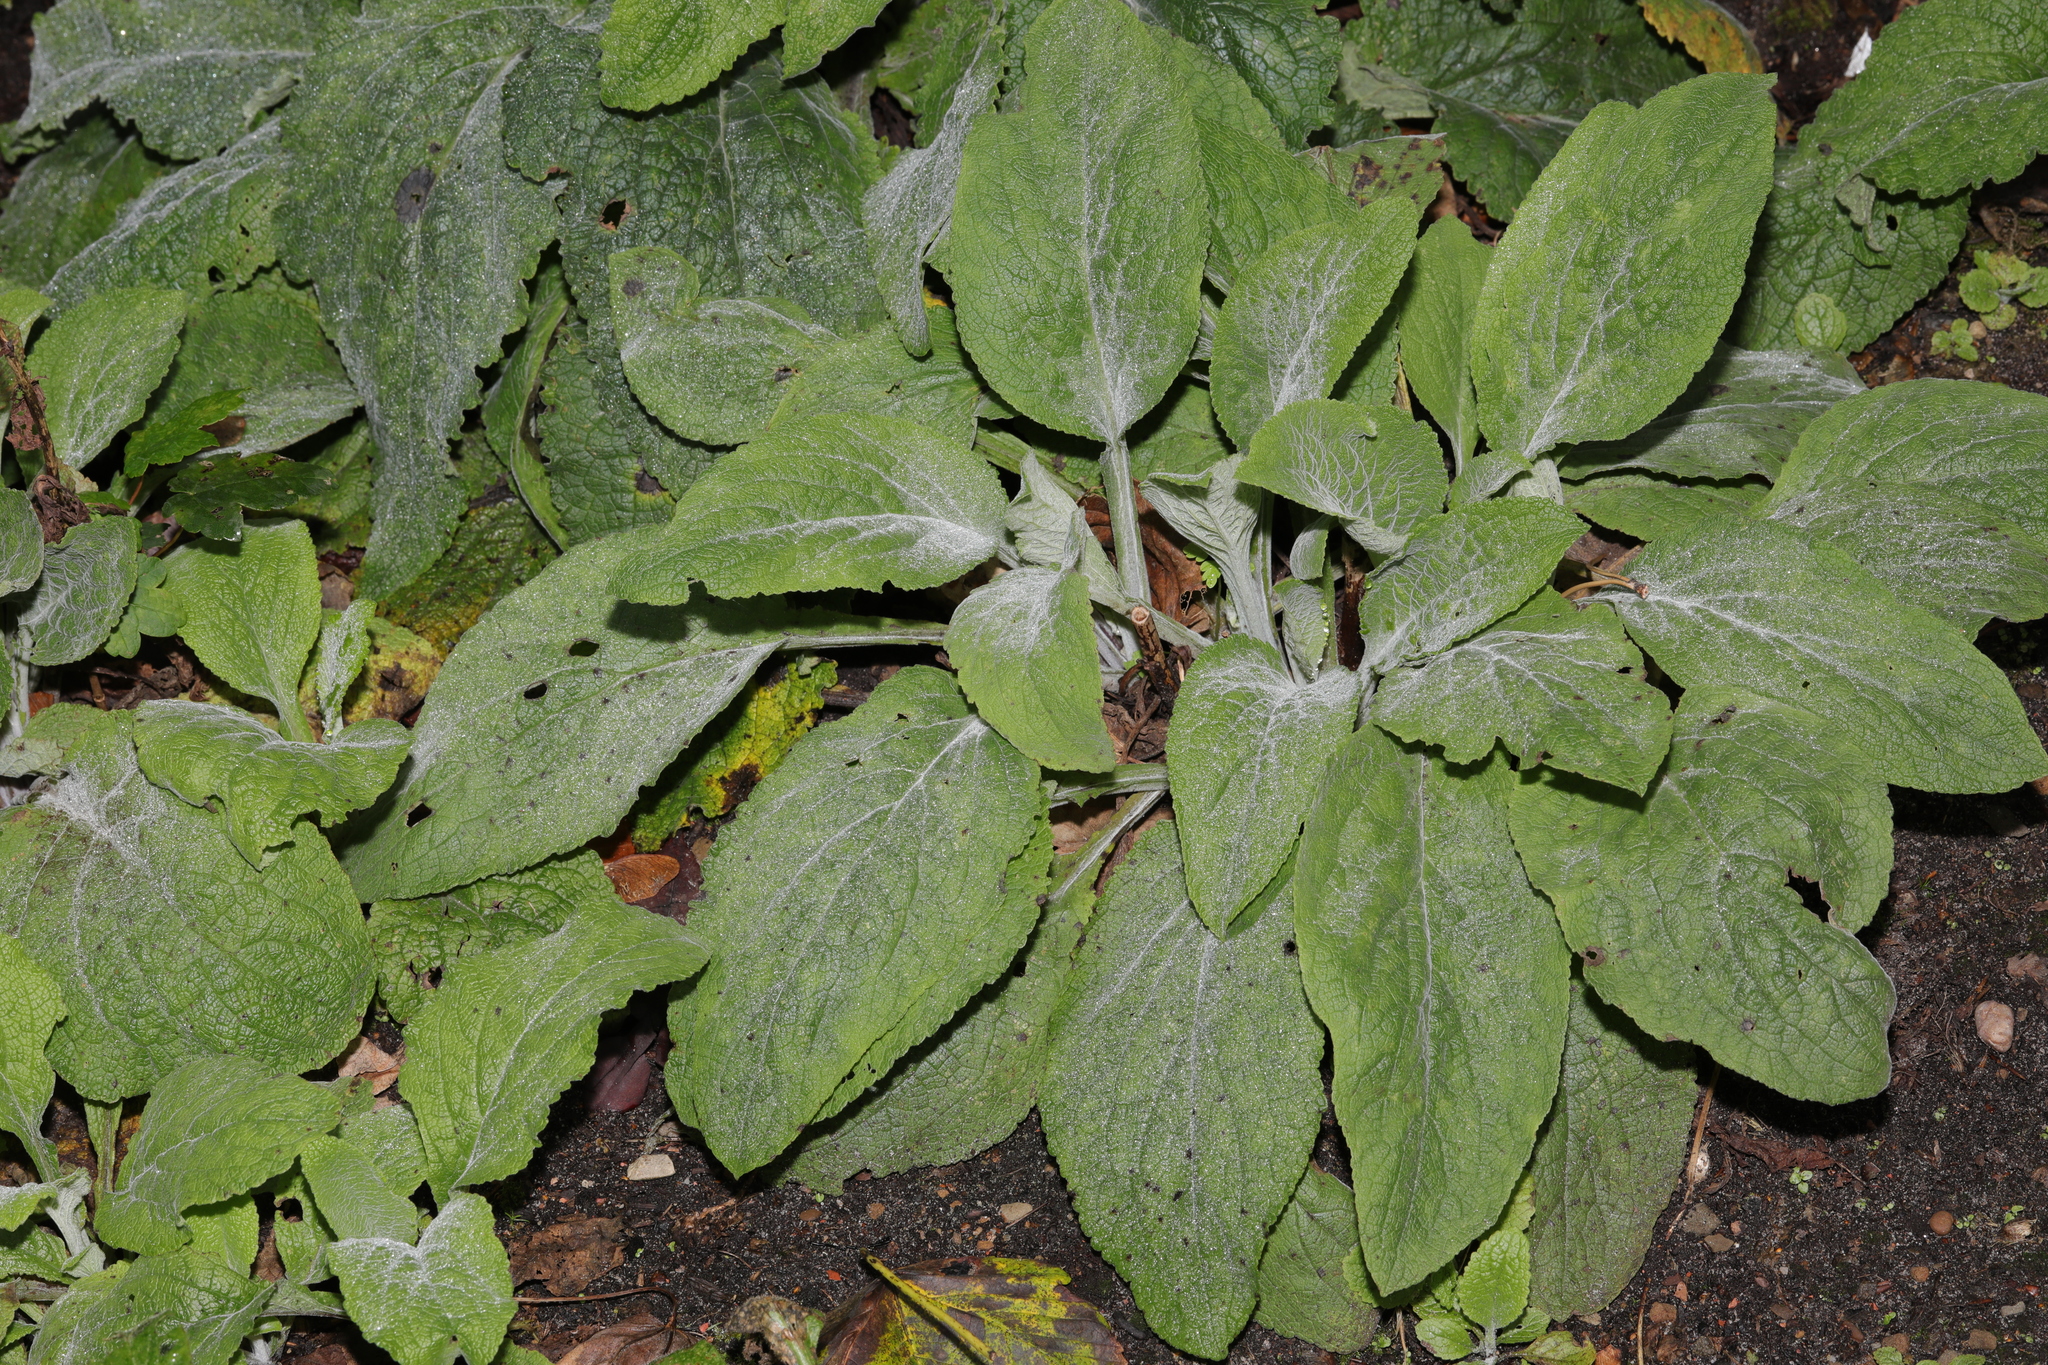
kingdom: Plantae
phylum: Tracheophyta
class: Magnoliopsida
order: Lamiales
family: Plantaginaceae
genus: Digitalis
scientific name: Digitalis purpurea
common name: Foxglove
